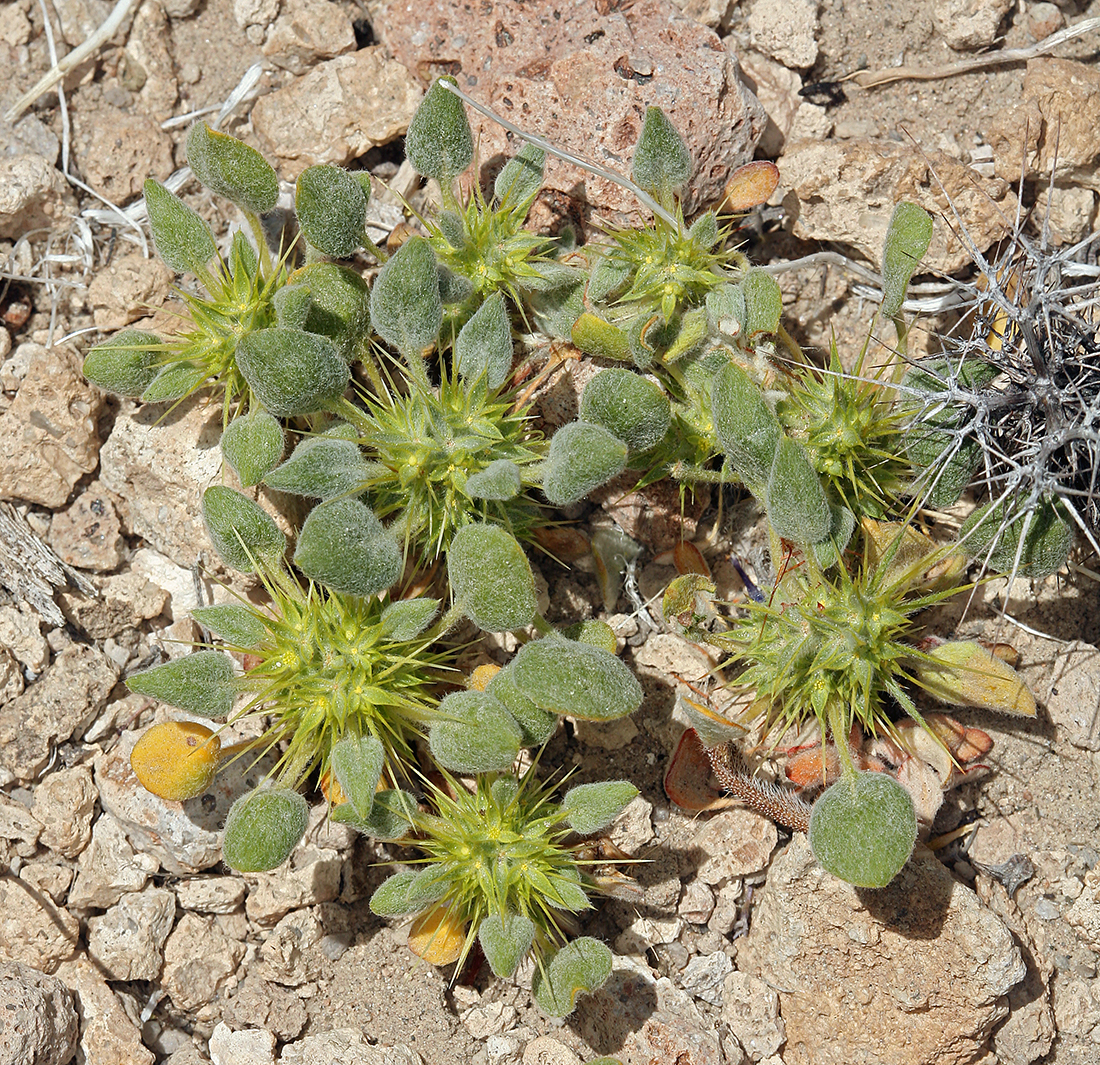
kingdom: Plantae
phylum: Tracheophyta
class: Magnoliopsida
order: Caryophyllales
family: Polygonaceae
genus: Chorizanthe
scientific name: Chorizanthe rigida
